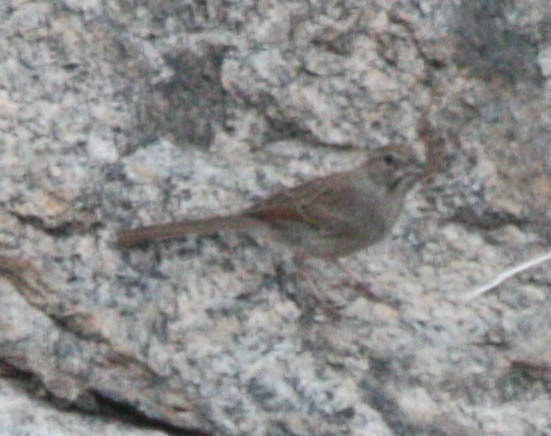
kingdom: Animalia
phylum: Chordata
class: Aves
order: Passeriformes
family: Passerellidae
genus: Aimophila
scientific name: Aimophila ruficeps
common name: Rufous-crowned sparrow
